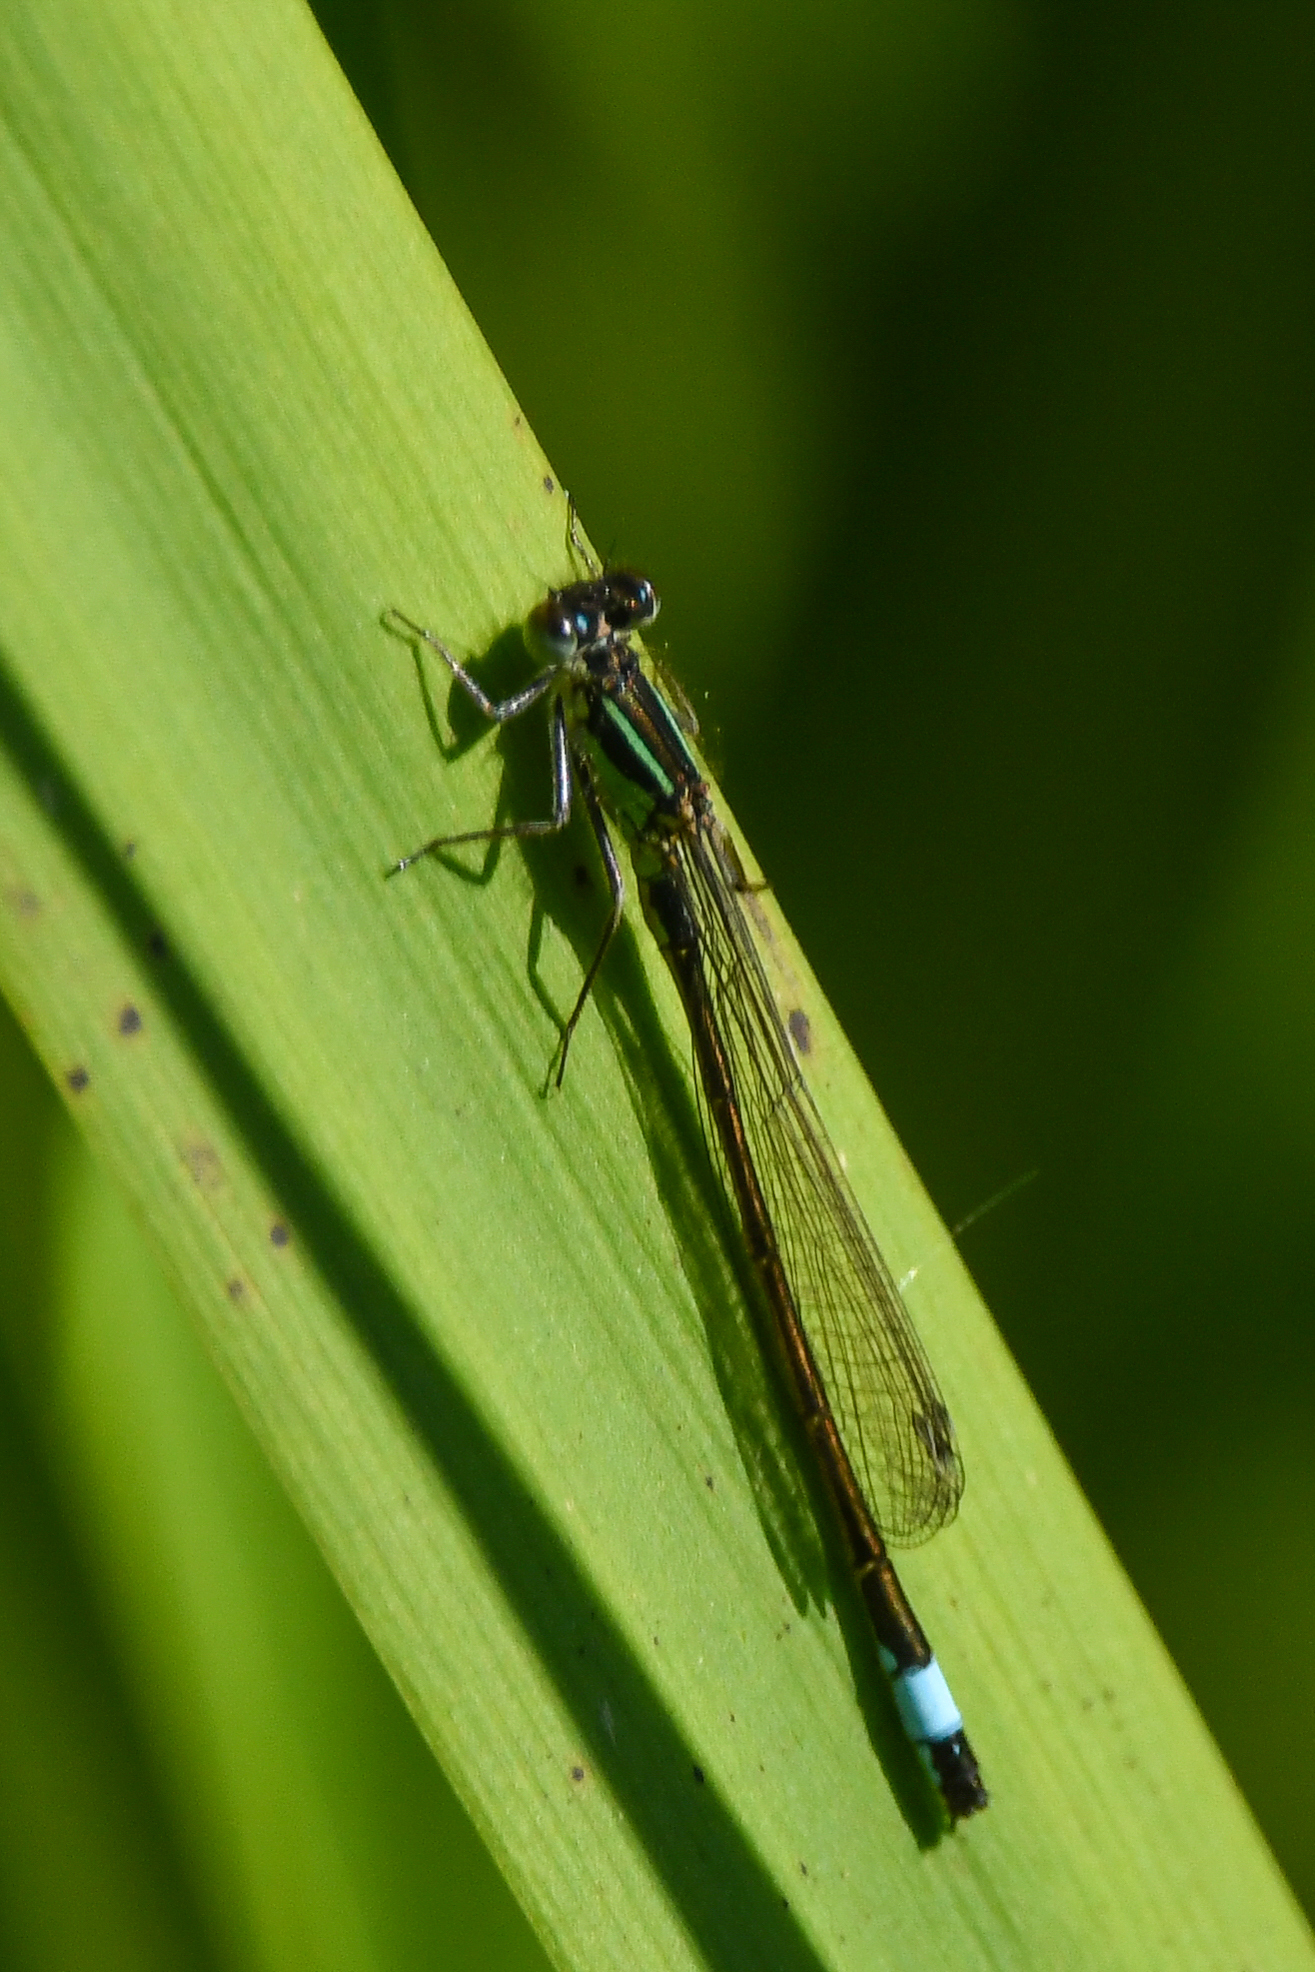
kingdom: Animalia
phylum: Arthropoda
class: Insecta
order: Odonata
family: Coenagrionidae
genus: Ischnura
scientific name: Ischnura elegans
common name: Blue-tailed damselfly
